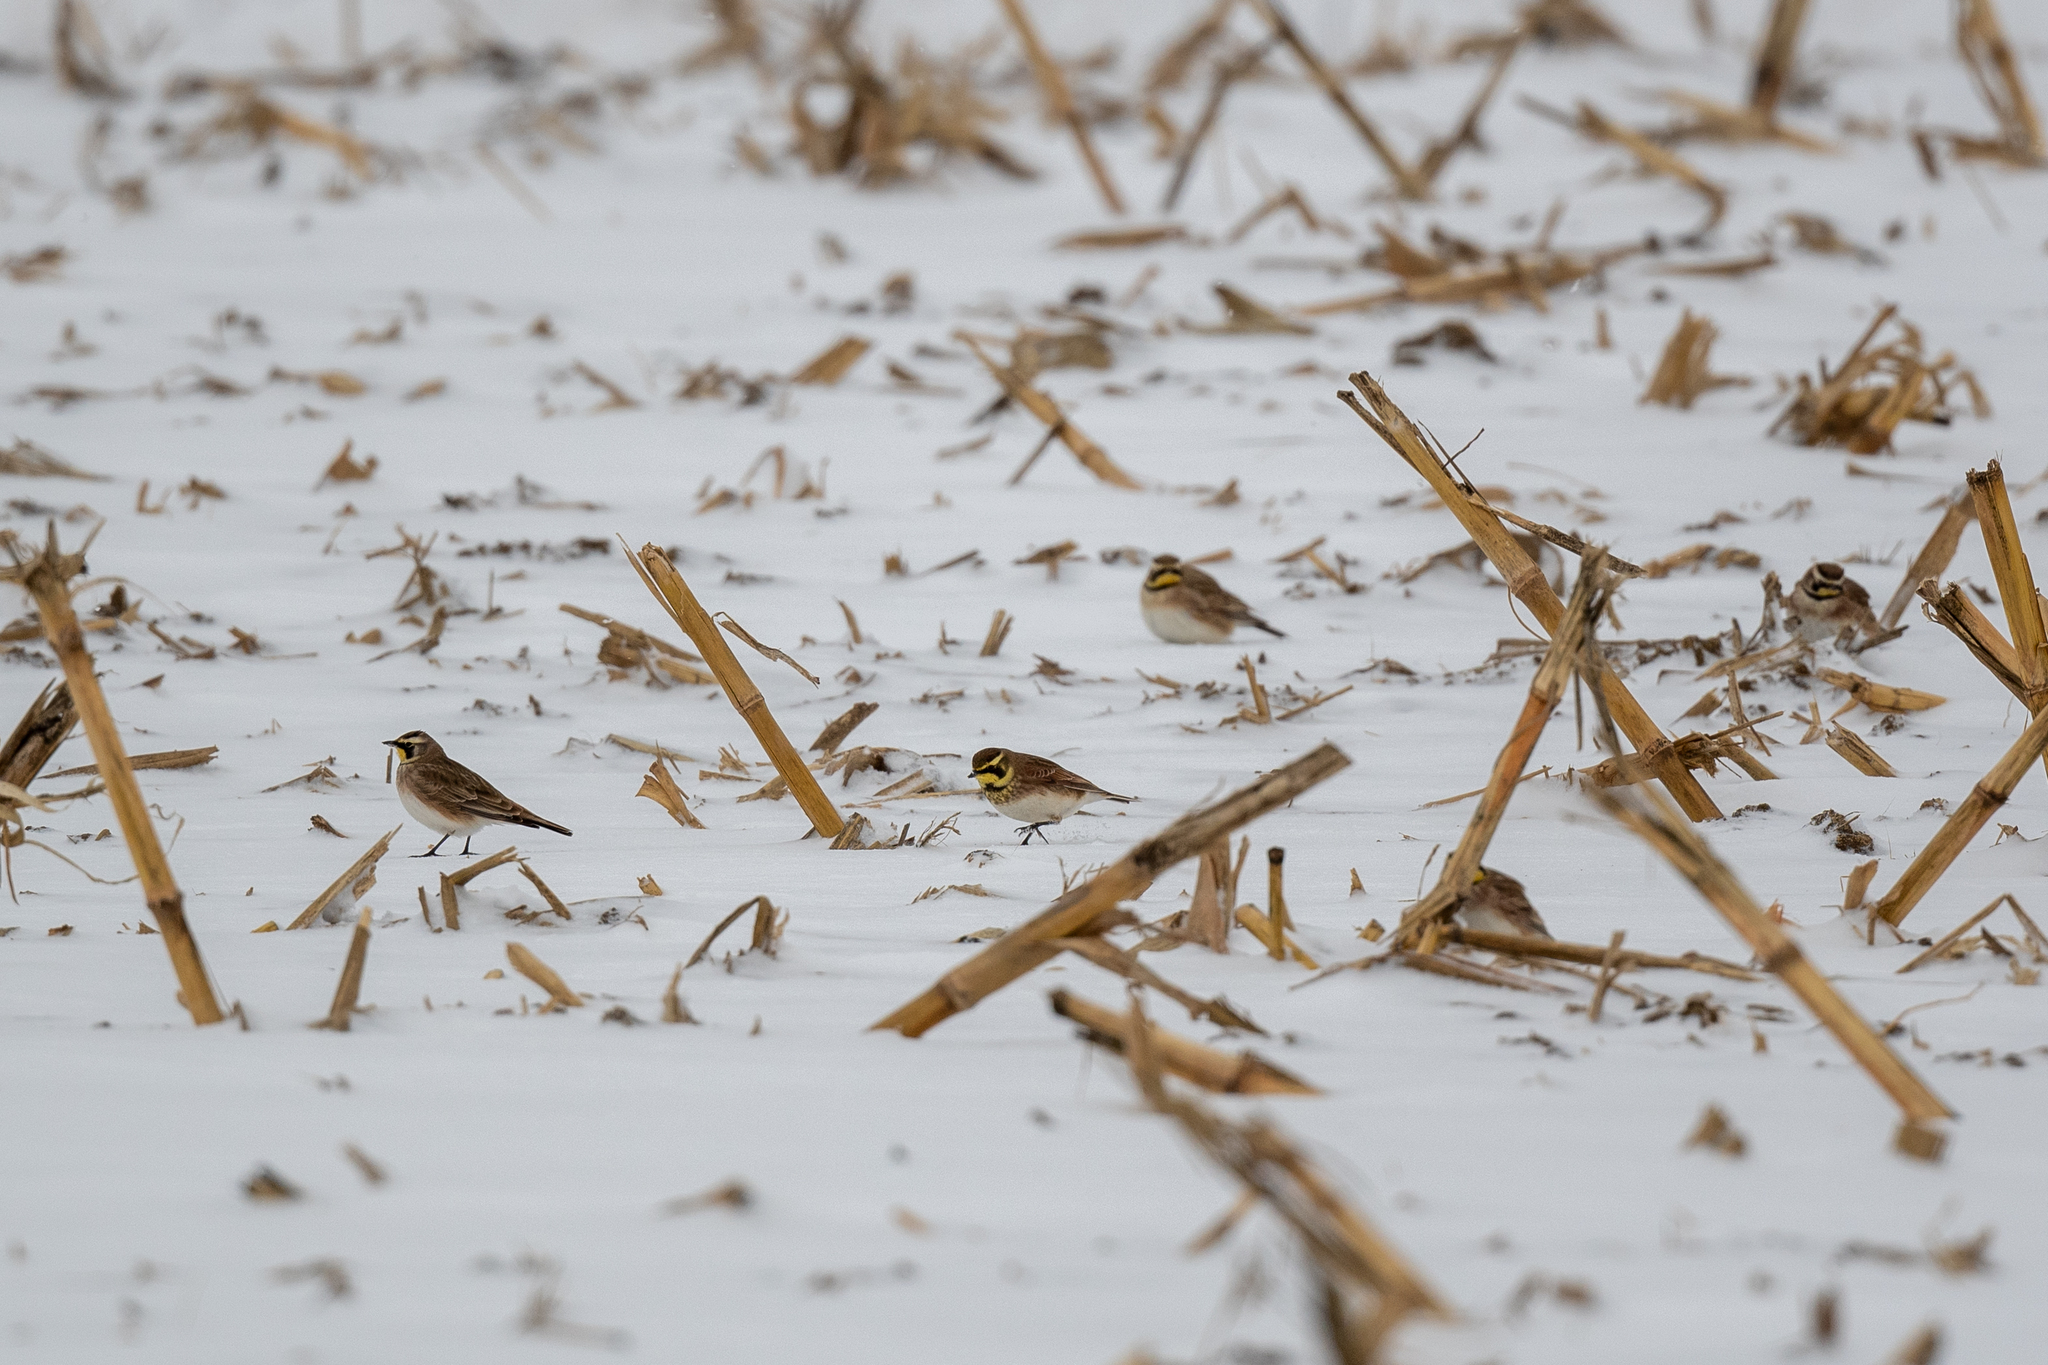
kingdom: Animalia
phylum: Chordata
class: Aves
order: Passeriformes
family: Alaudidae
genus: Eremophila
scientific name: Eremophila alpestris
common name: Horned lark
